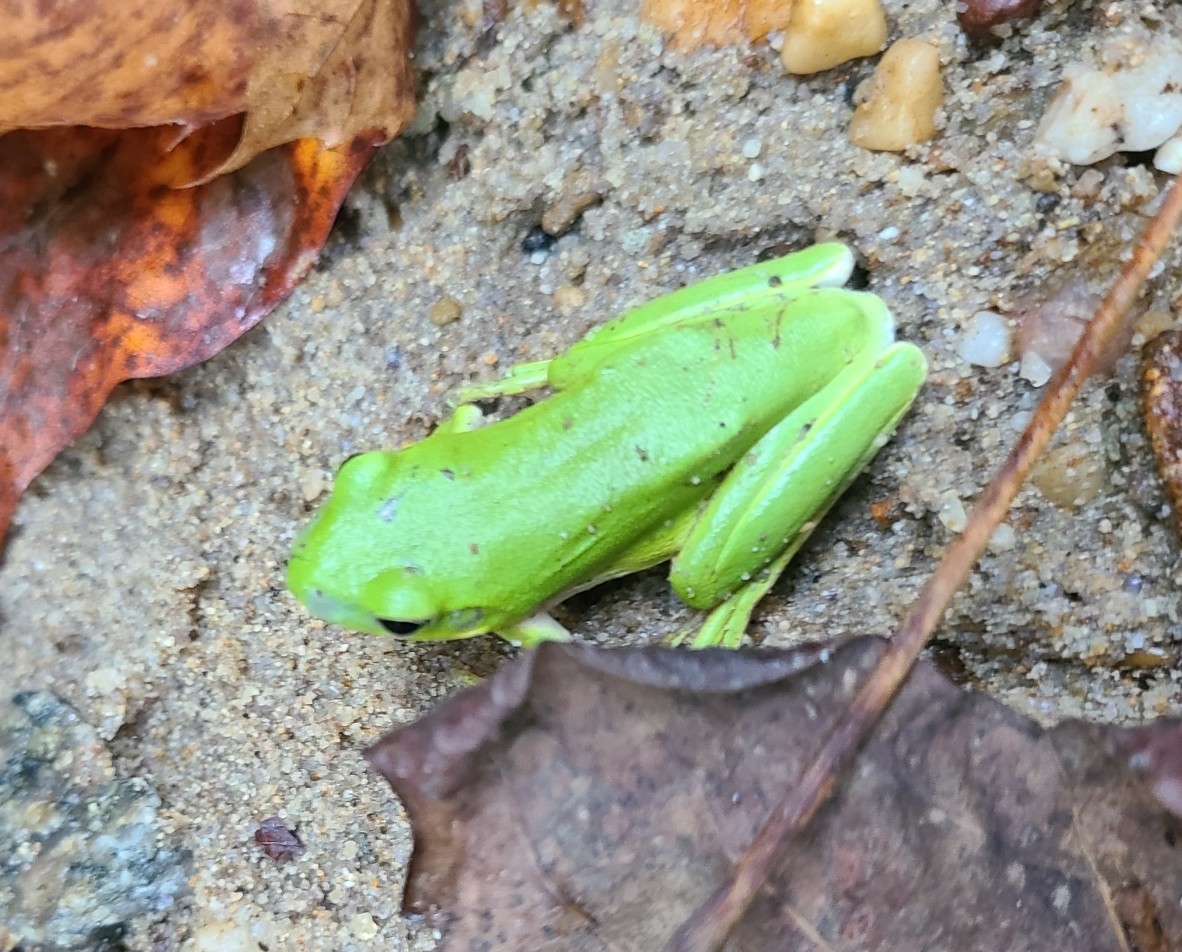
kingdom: Animalia
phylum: Chordata
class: Amphibia
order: Anura
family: Hylidae
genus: Dryophytes
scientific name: Dryophytes cinereus
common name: Green treefrog
